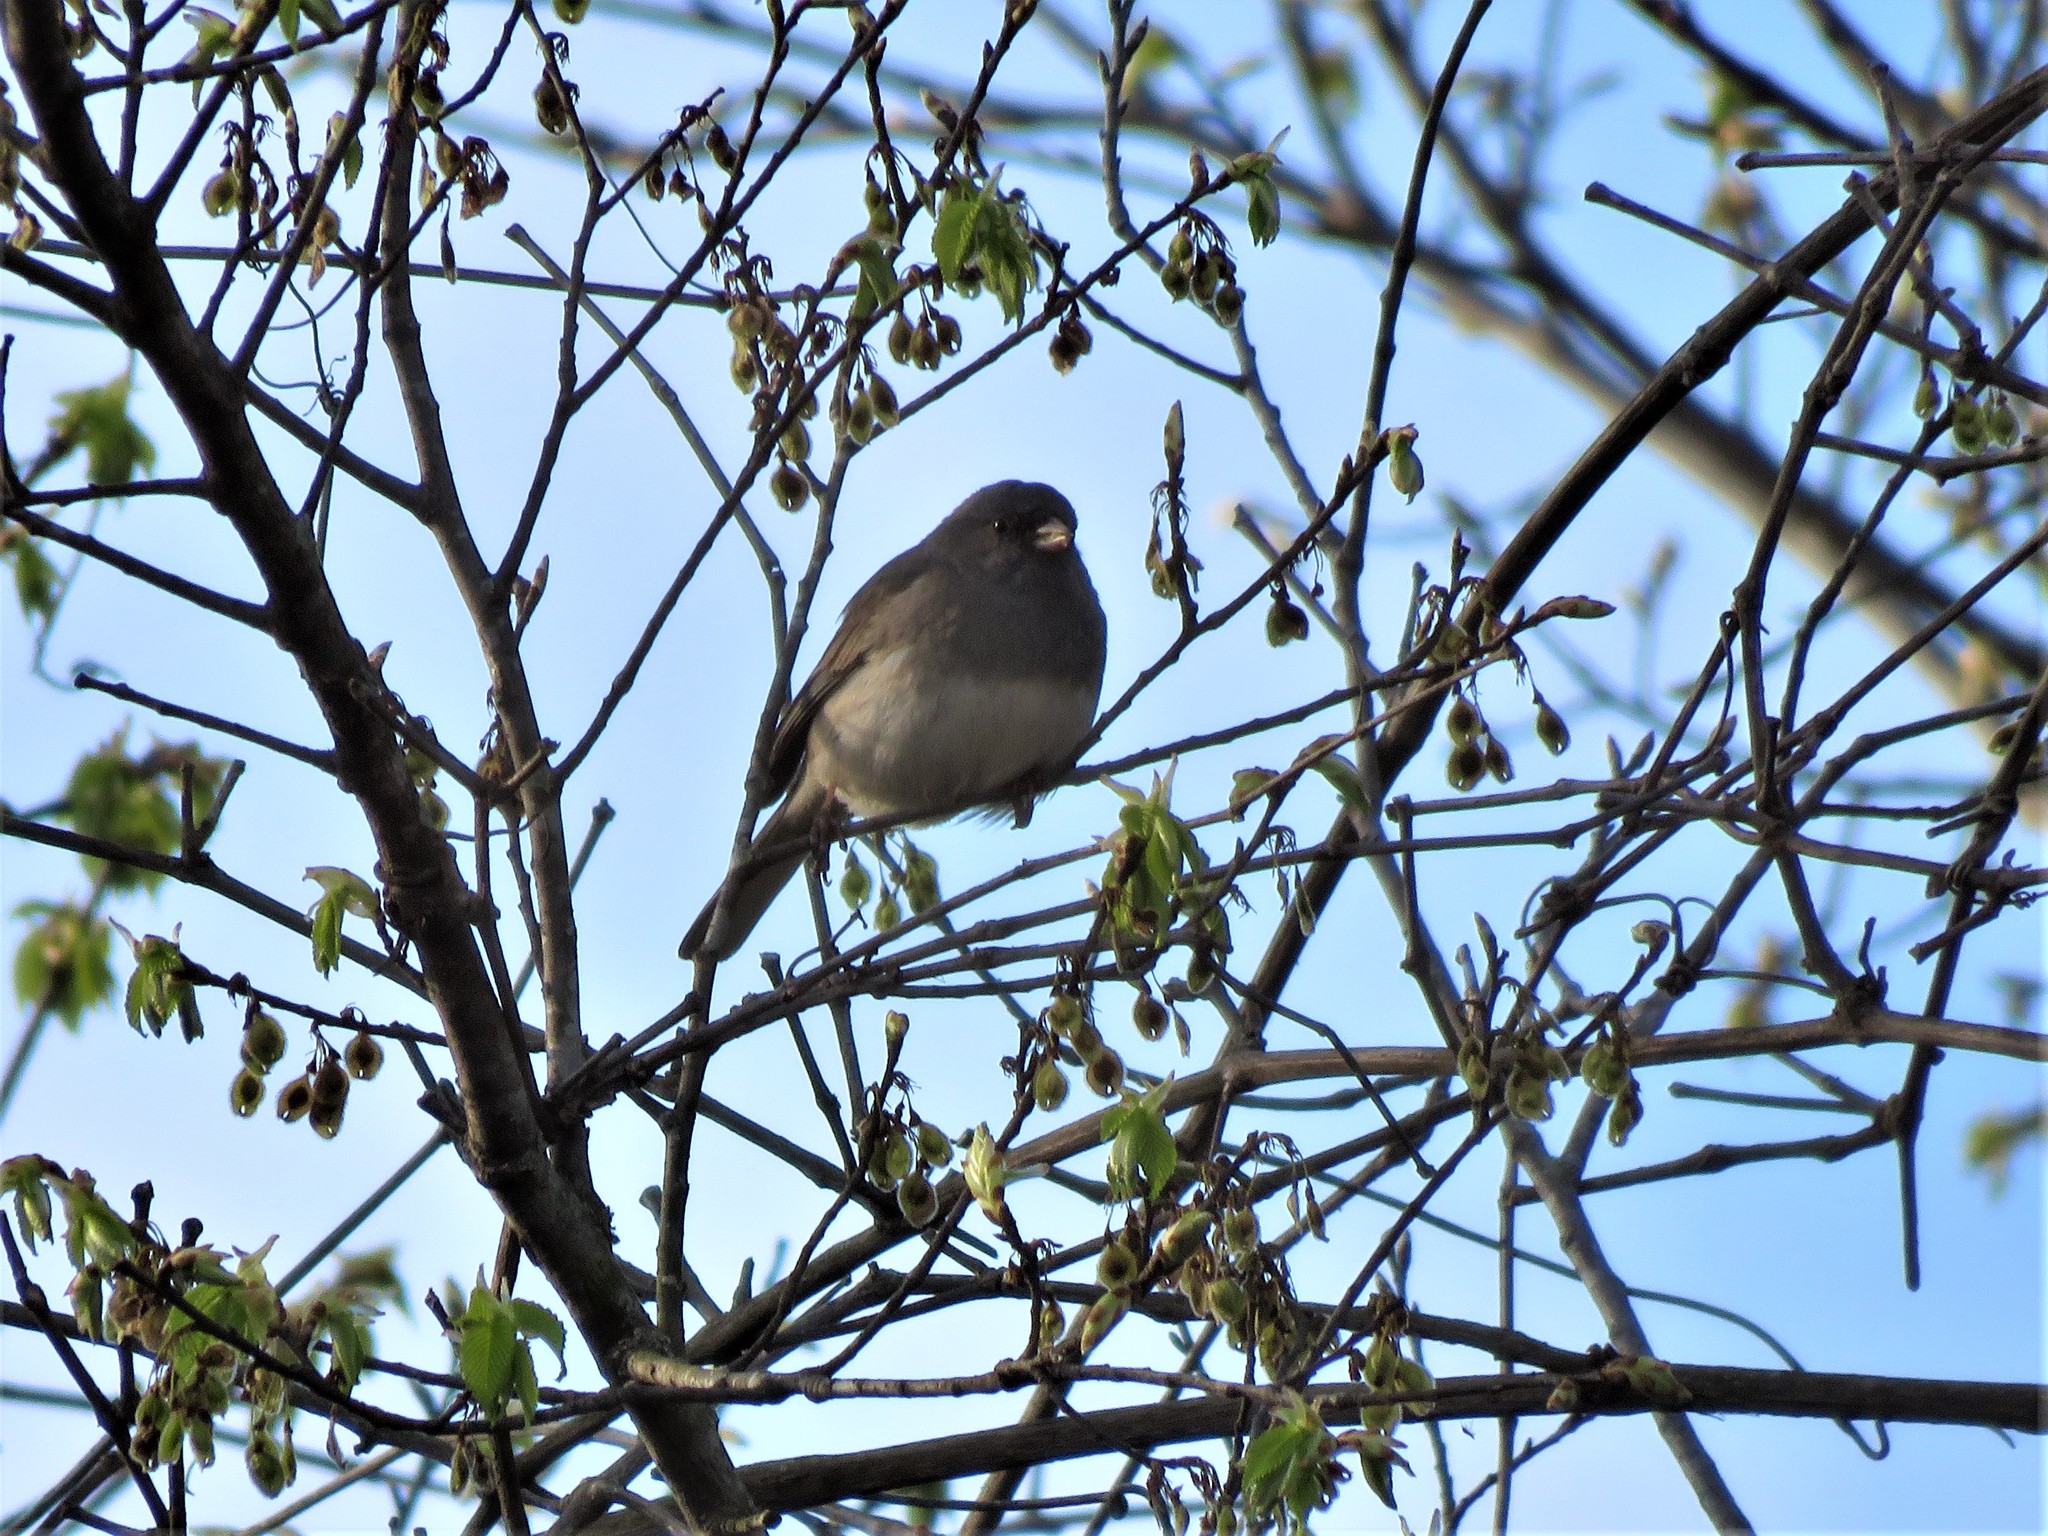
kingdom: Animalia
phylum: Chordata
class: Aves
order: Passeriformes
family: Passerellidae
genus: Junco
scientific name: Junco hyemalis
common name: Dark-eyed junco
